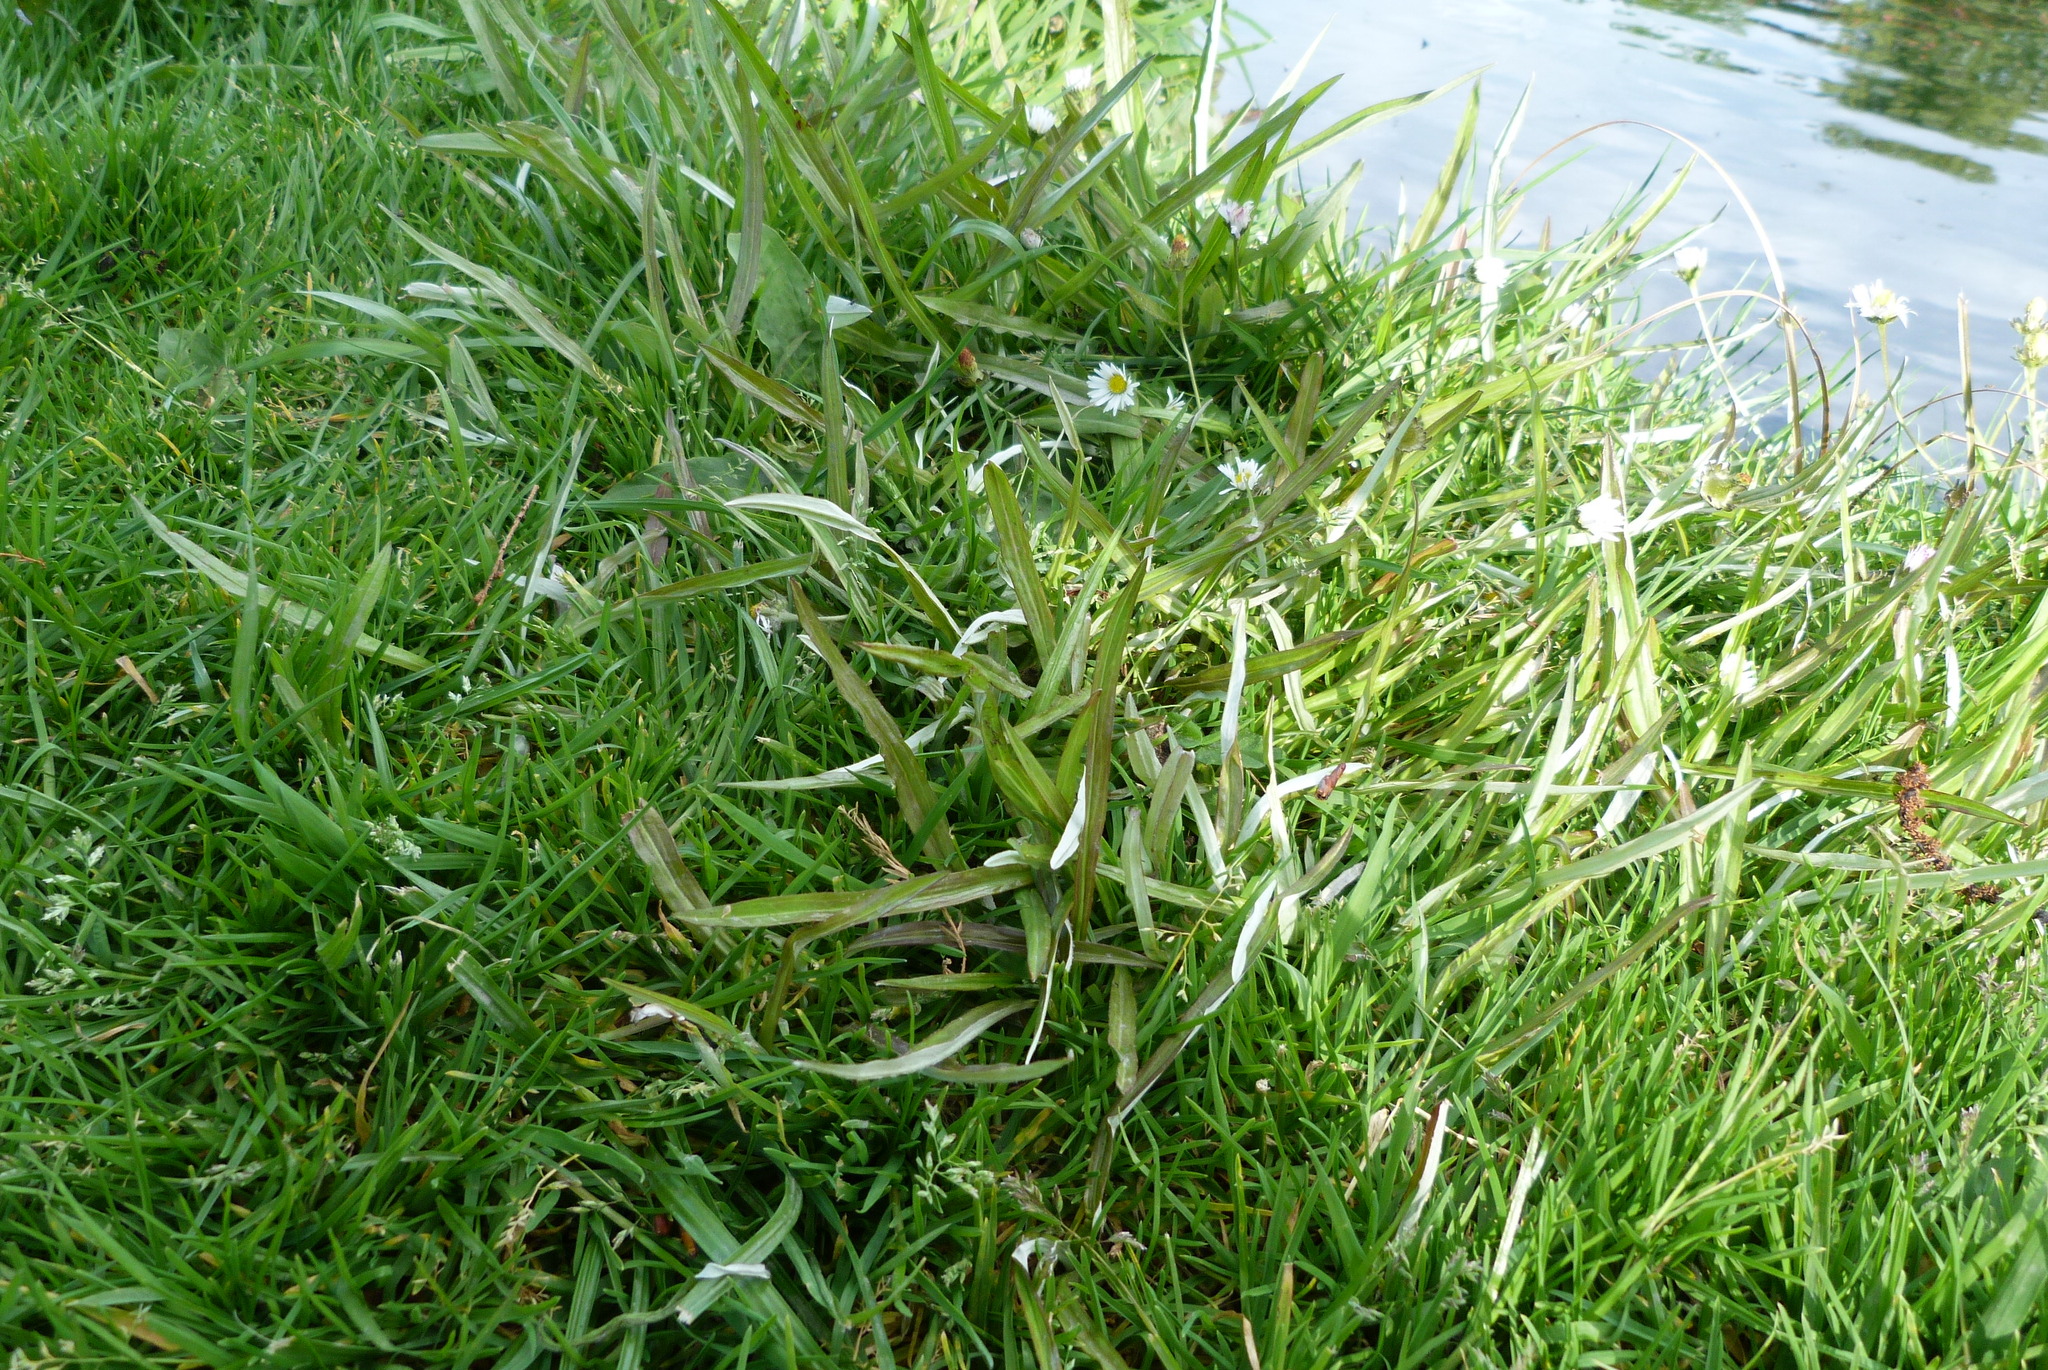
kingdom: Plantae
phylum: Tracheophyta
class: Magnoliopsida
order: Asterales
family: Asteraceae
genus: Euchiton
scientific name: Euchiton involucratus
